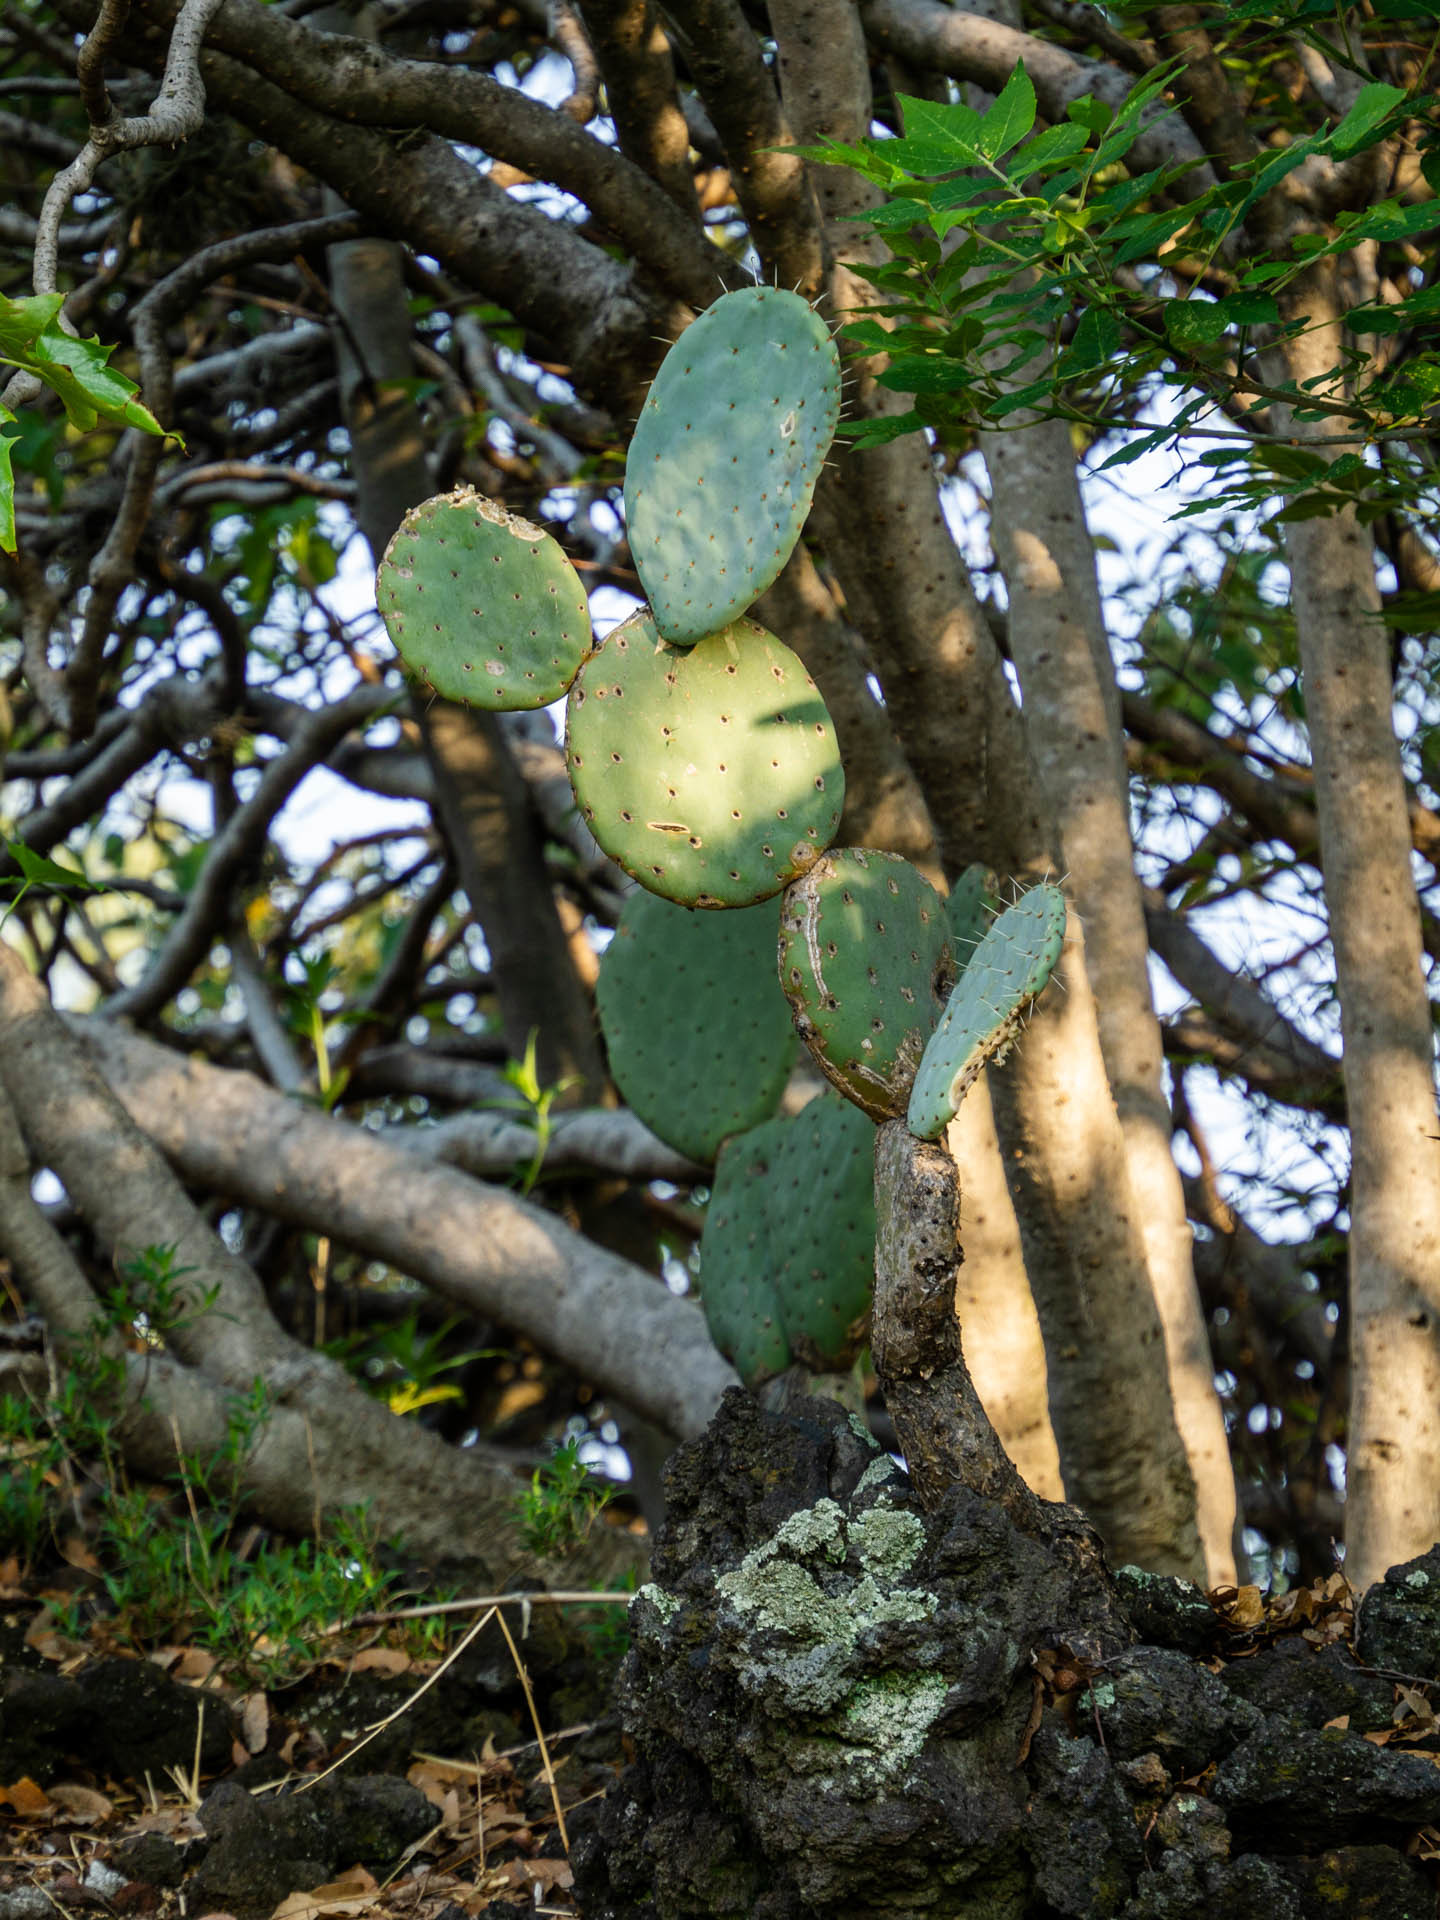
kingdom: Plantae
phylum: Tracheophyta
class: Magnoliopsida
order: Caryophyllales
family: Cactaceae
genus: Opuntia
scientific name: Opuntia robusta
